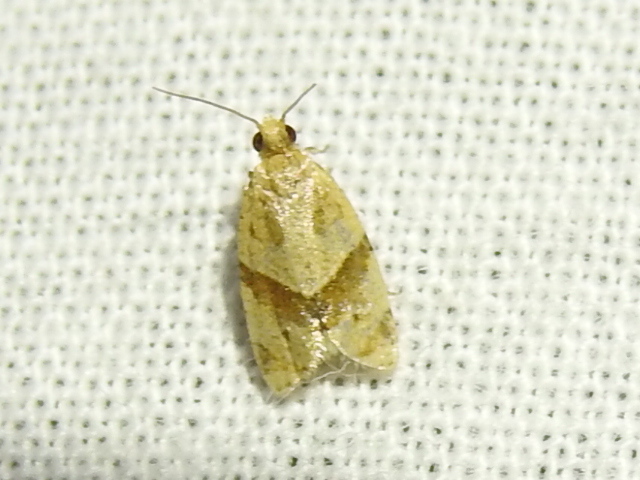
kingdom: Animalia
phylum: Arthropoda
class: Insecta
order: Lepidoptera
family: Tortricidae
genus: Clepsis
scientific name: Clepsis peritana
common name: Garden tortrix
